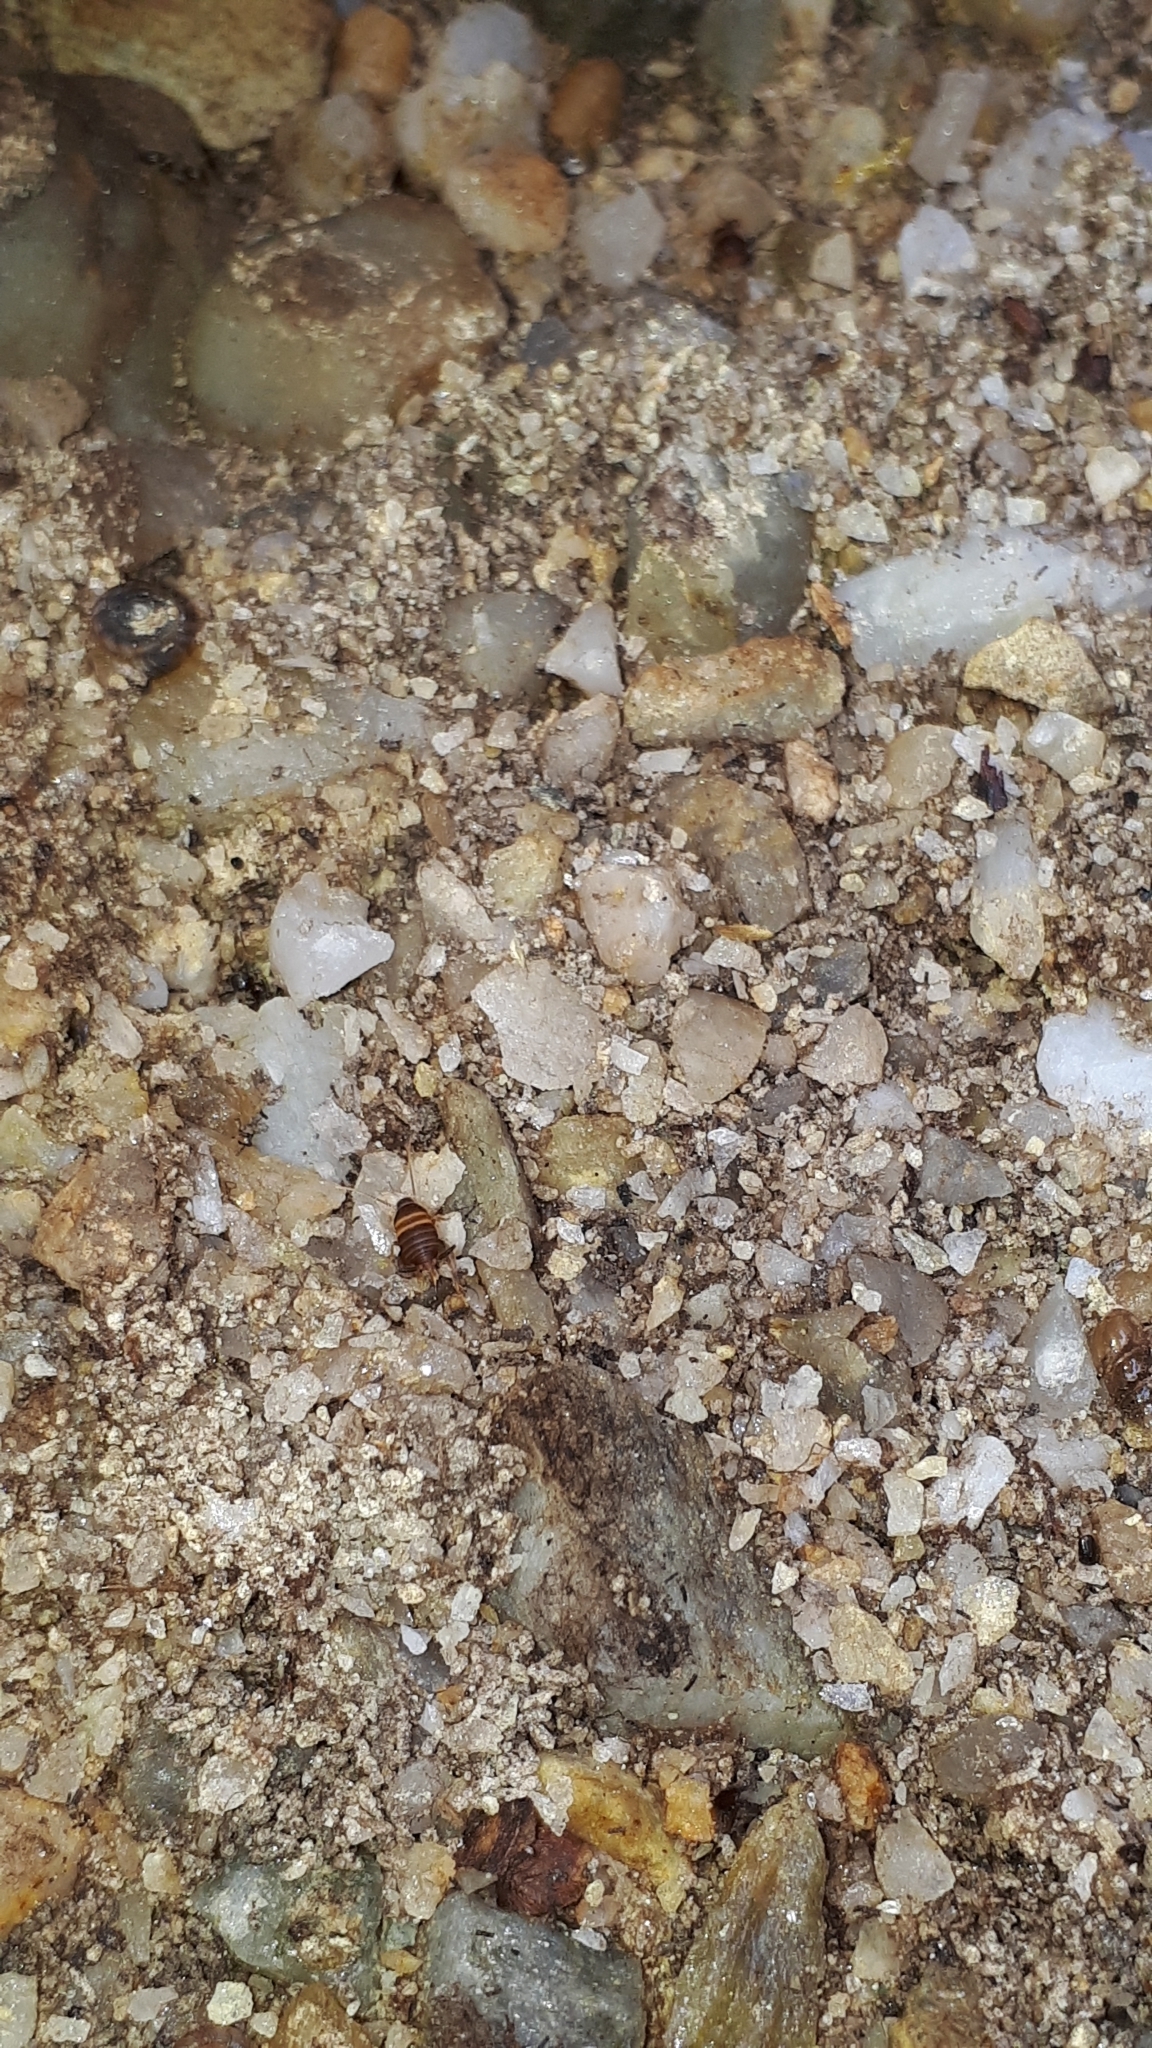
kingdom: Animalia
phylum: Arthropoda
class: Insecta
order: Orthoptera
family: Myrmecophilidae
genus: Myrmecophilus
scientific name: Myrmecophilus acervorum
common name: Ants-nest cricket
